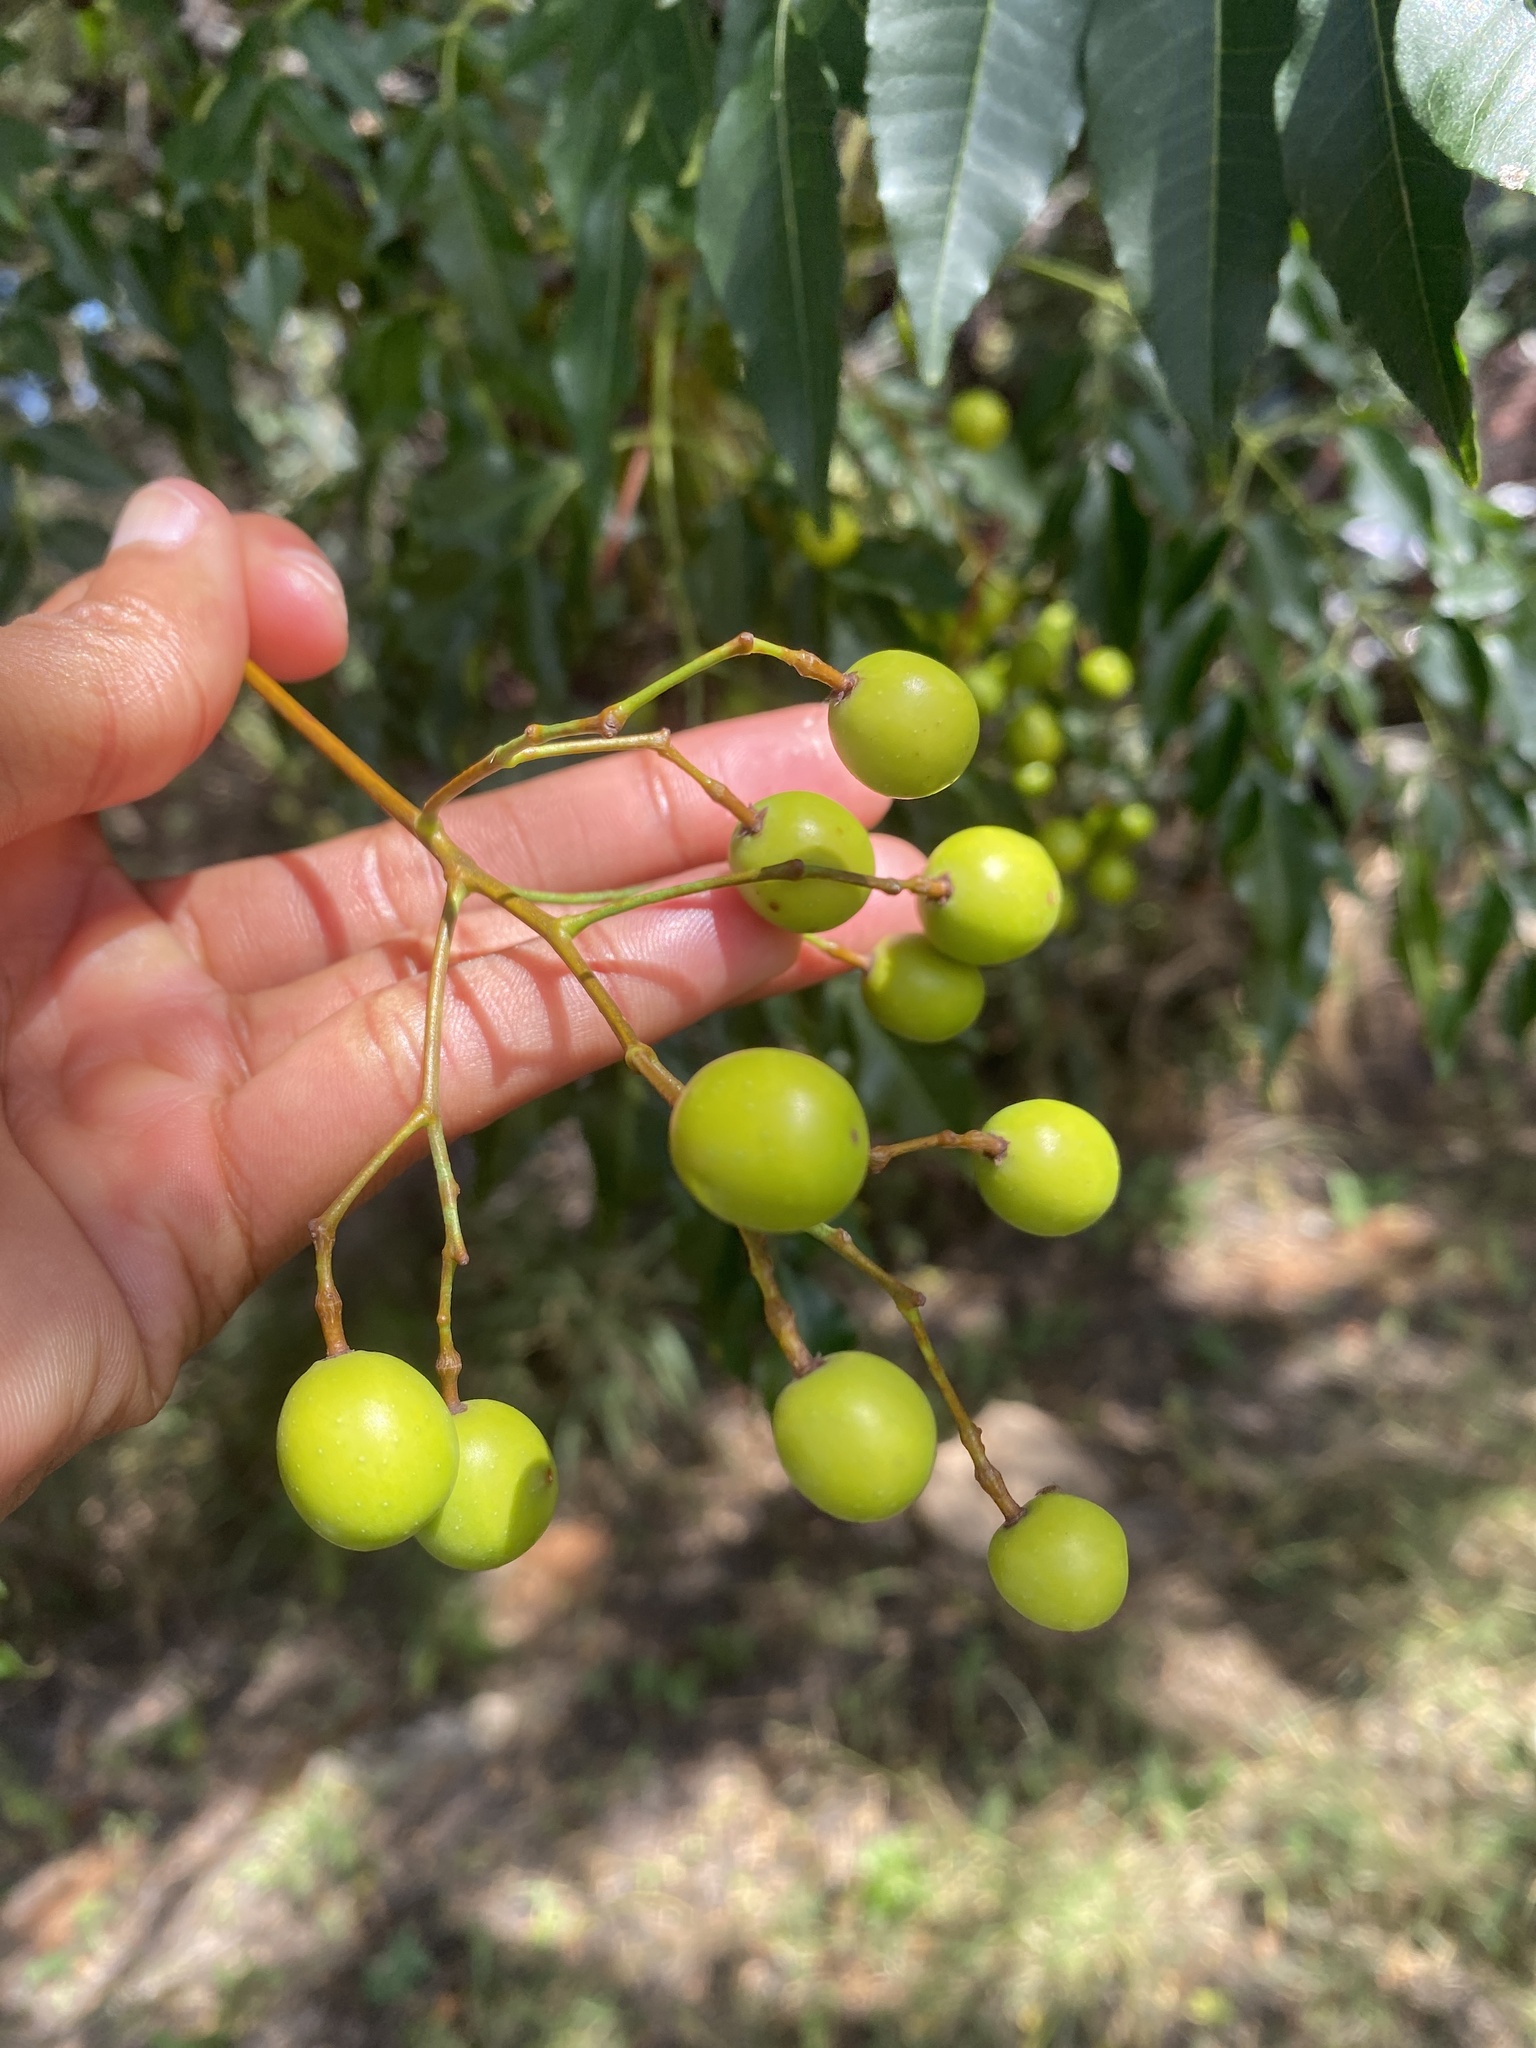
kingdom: Plantae
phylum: Tracheophyta
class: Magnoliopsida
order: Sapindales
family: Meliaceae
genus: Melia
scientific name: Melia azedarach
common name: Chinaberrytree
